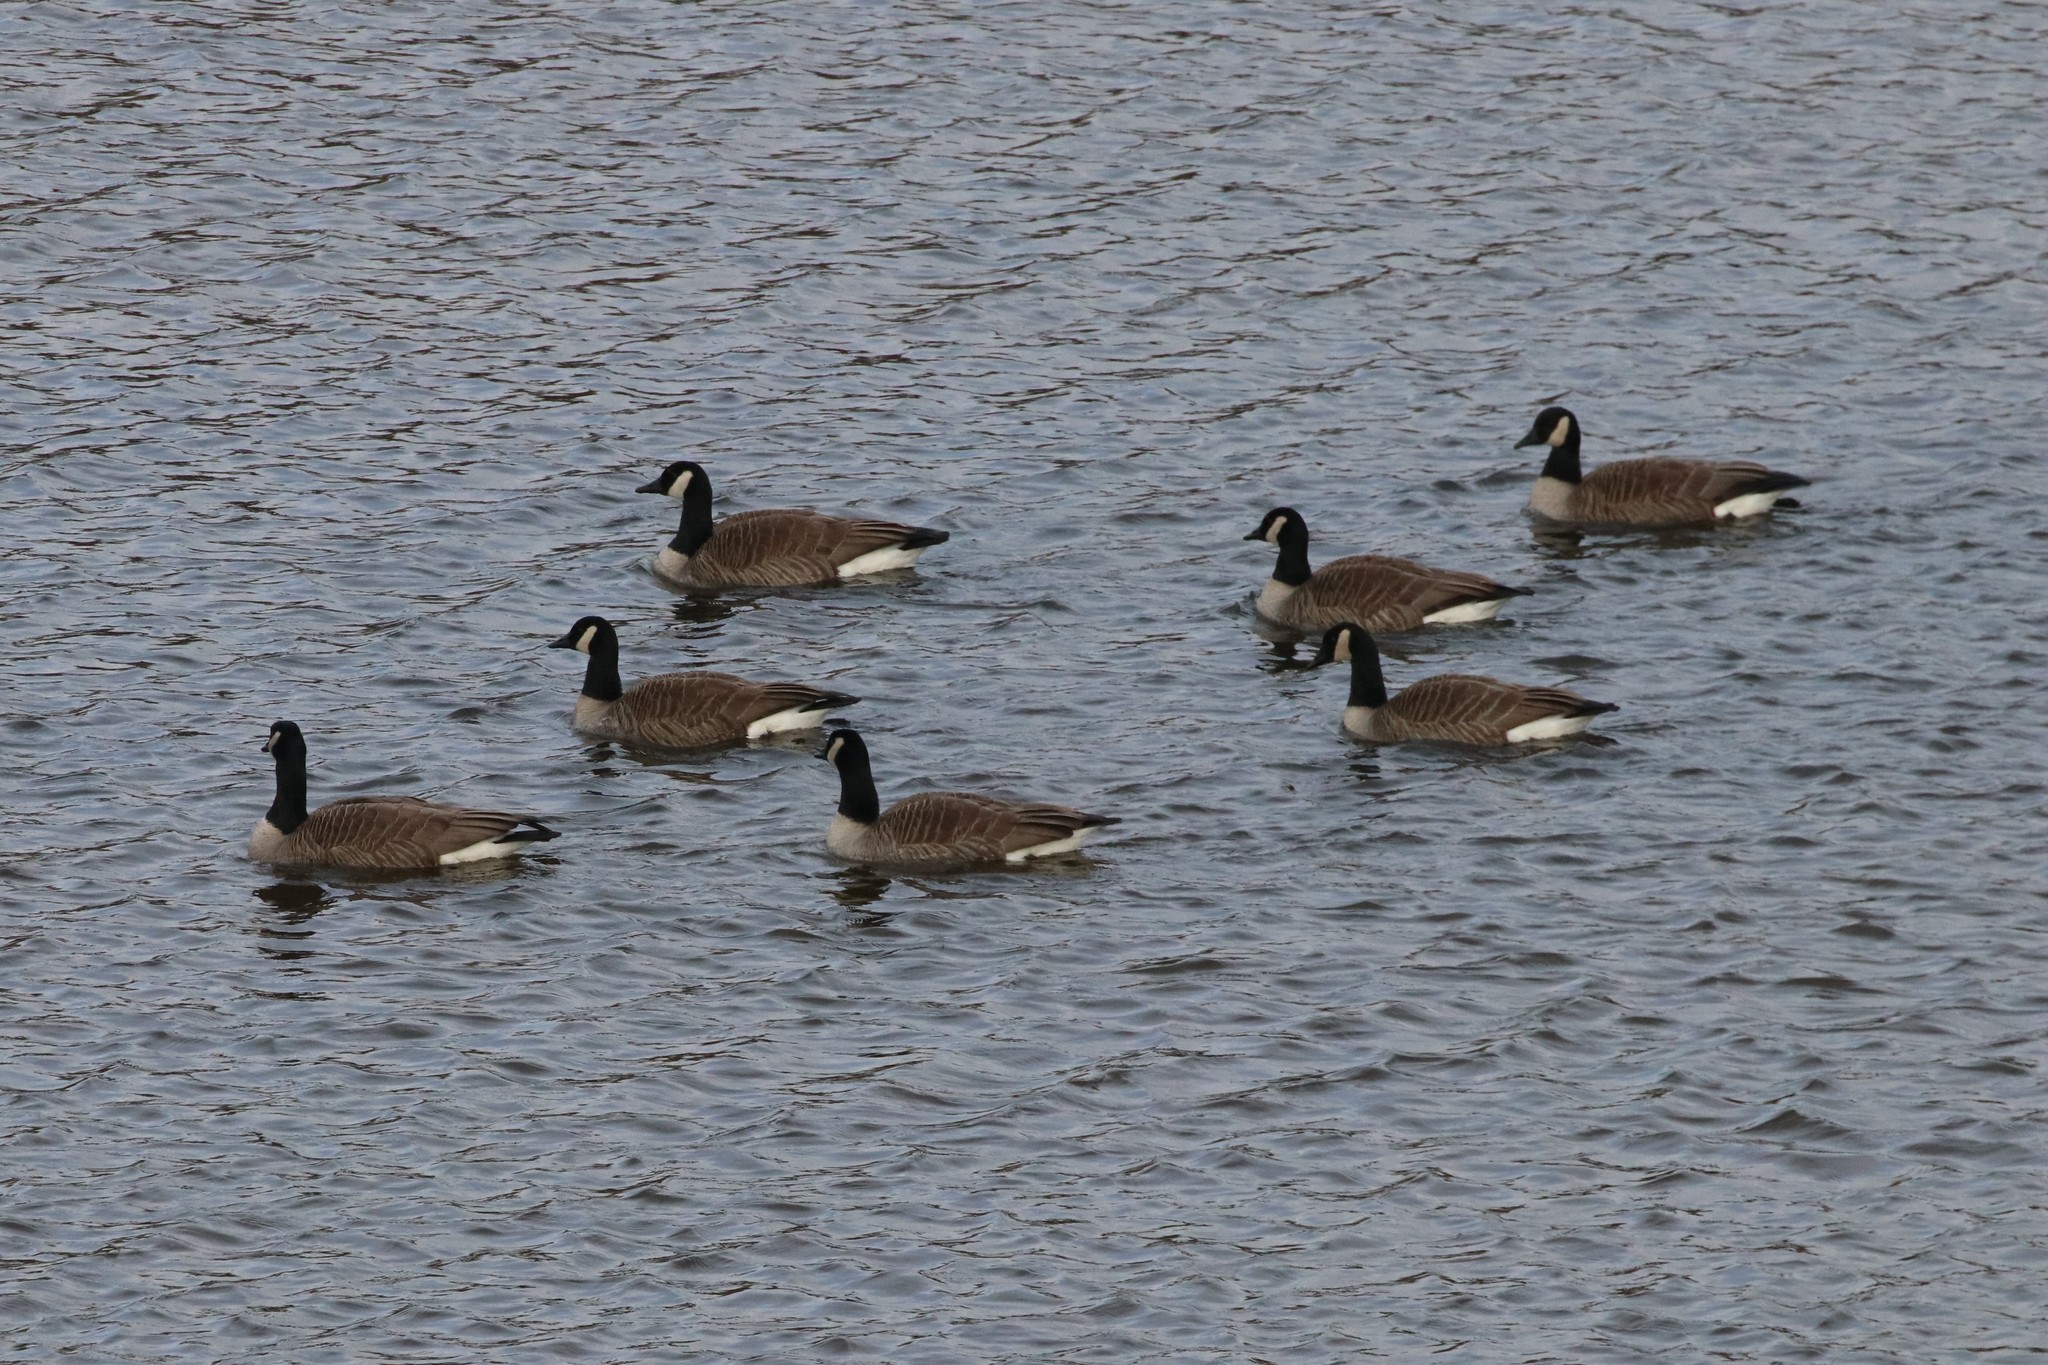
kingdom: Animalia
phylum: Chordata
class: Aves
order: Anseriformes
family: Anatidae
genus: Branta
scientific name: Branta canadensis
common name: Canada goose
